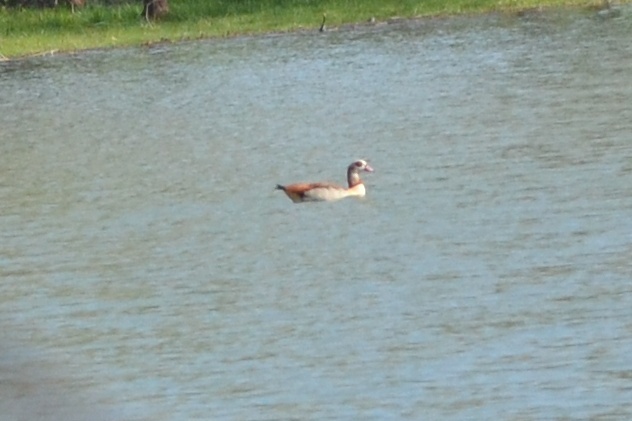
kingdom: Animalia
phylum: Chordata
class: Aves
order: Anseriformes
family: Anatidae
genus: Alopochen
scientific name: Alopochen aegyptiaca
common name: Egyptian goose
